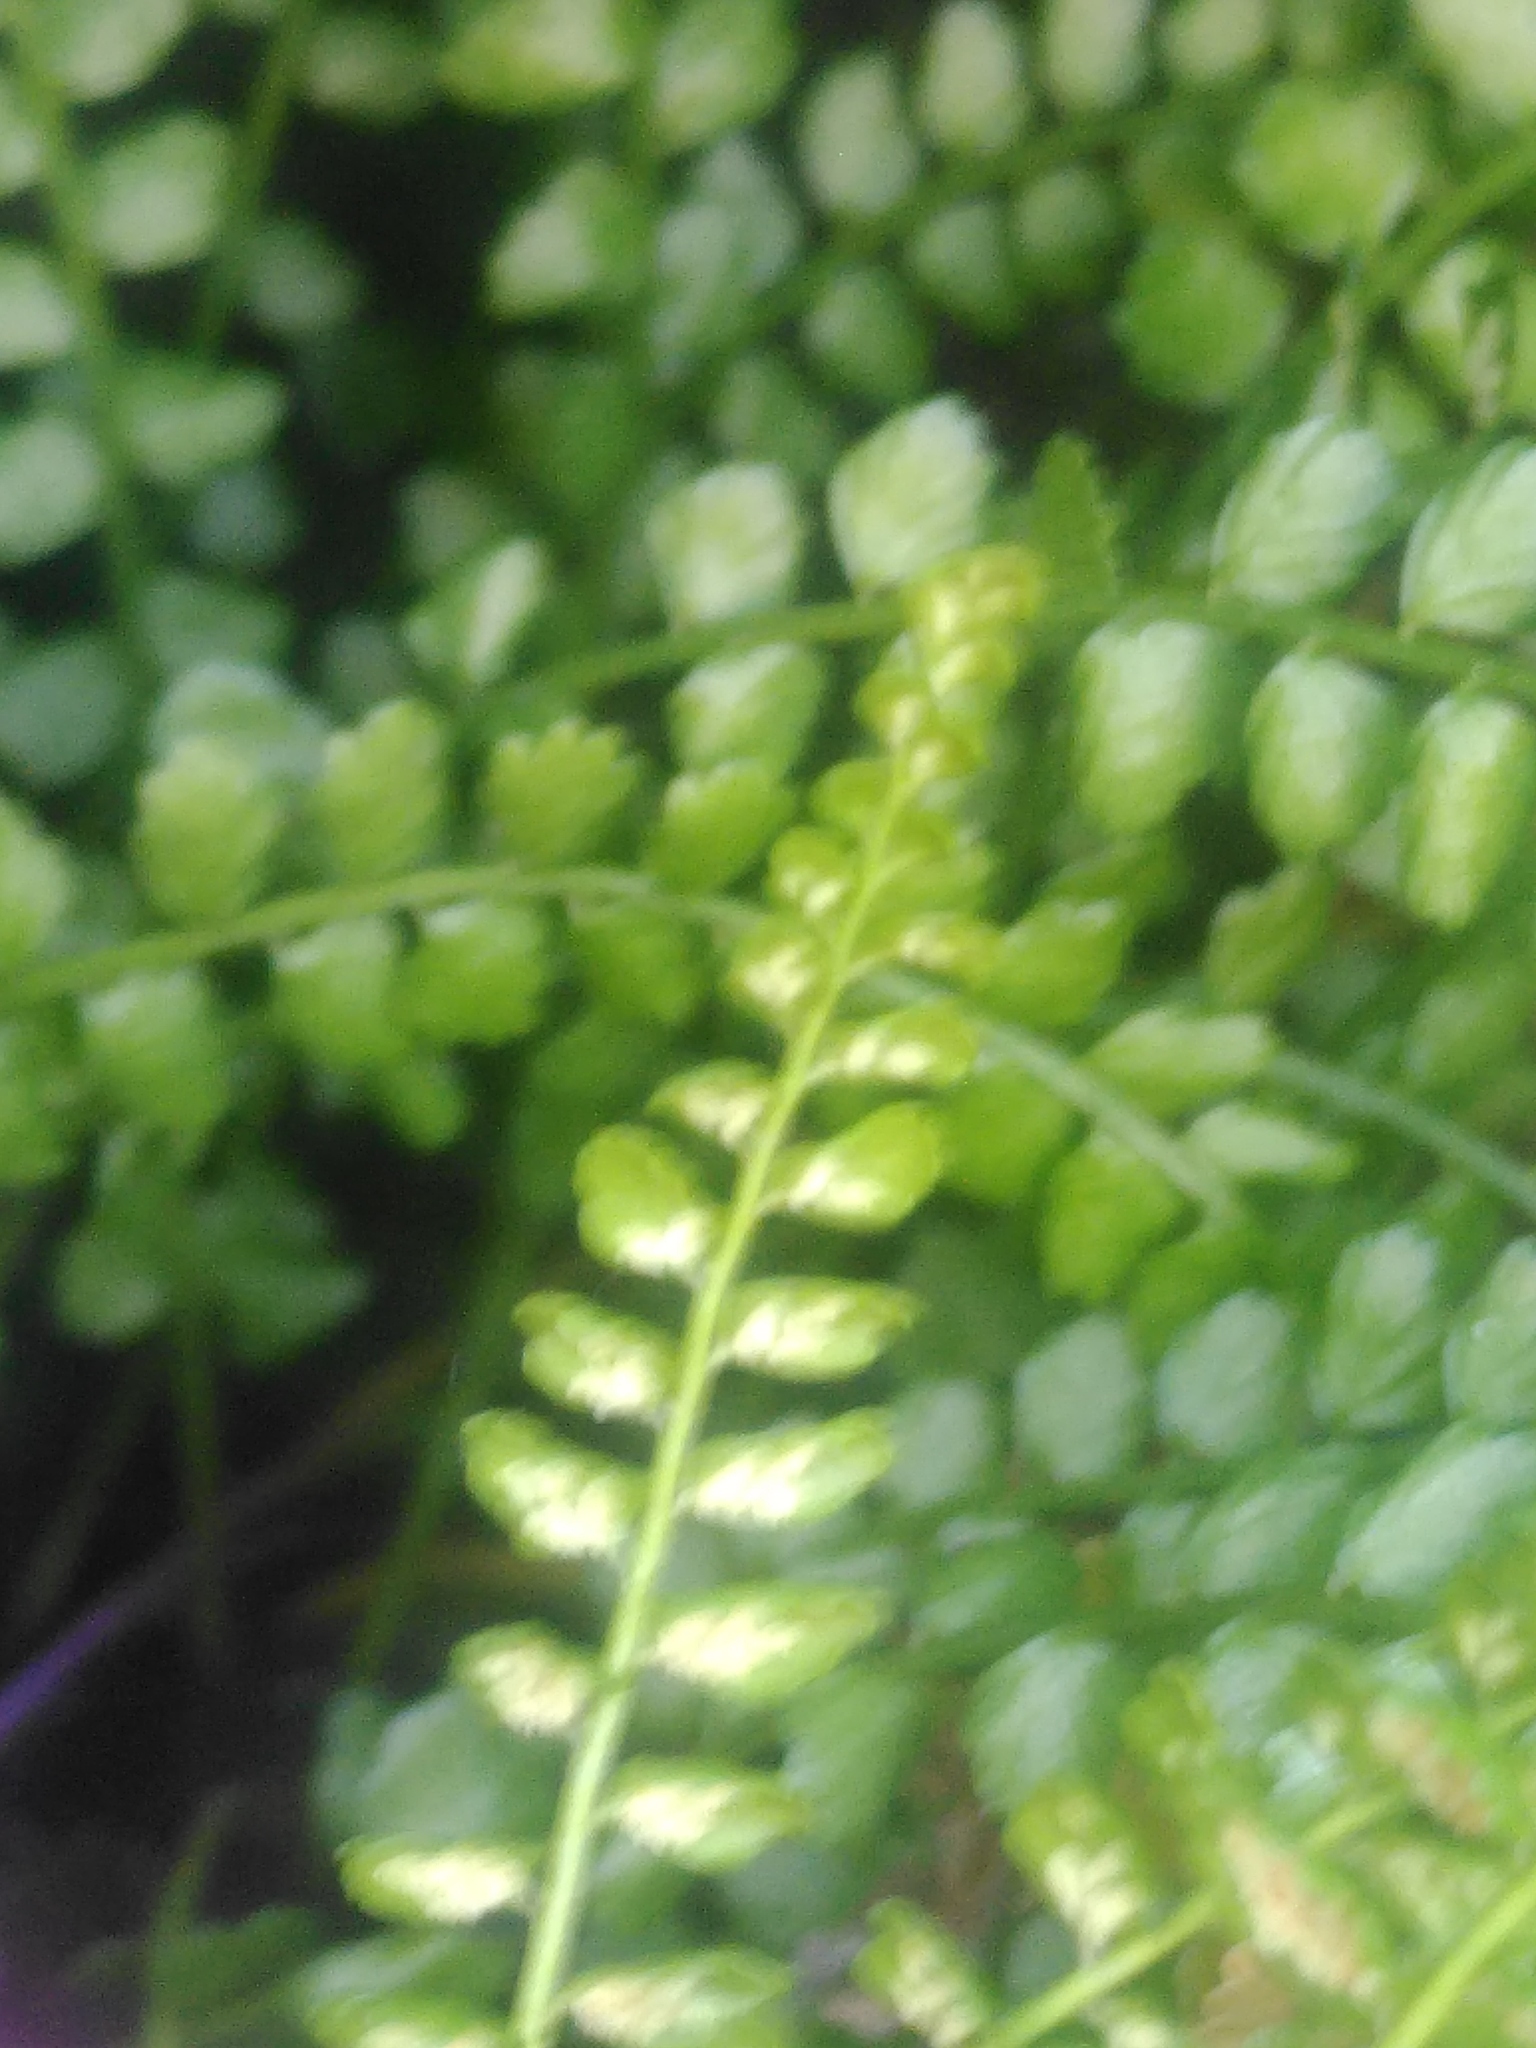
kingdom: Plantae
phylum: Tracheophyta
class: Polypodiopsida
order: Polypodiales
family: Aspleniaceae
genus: Asplenium
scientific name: Asplenium viride
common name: Green spleenwort
